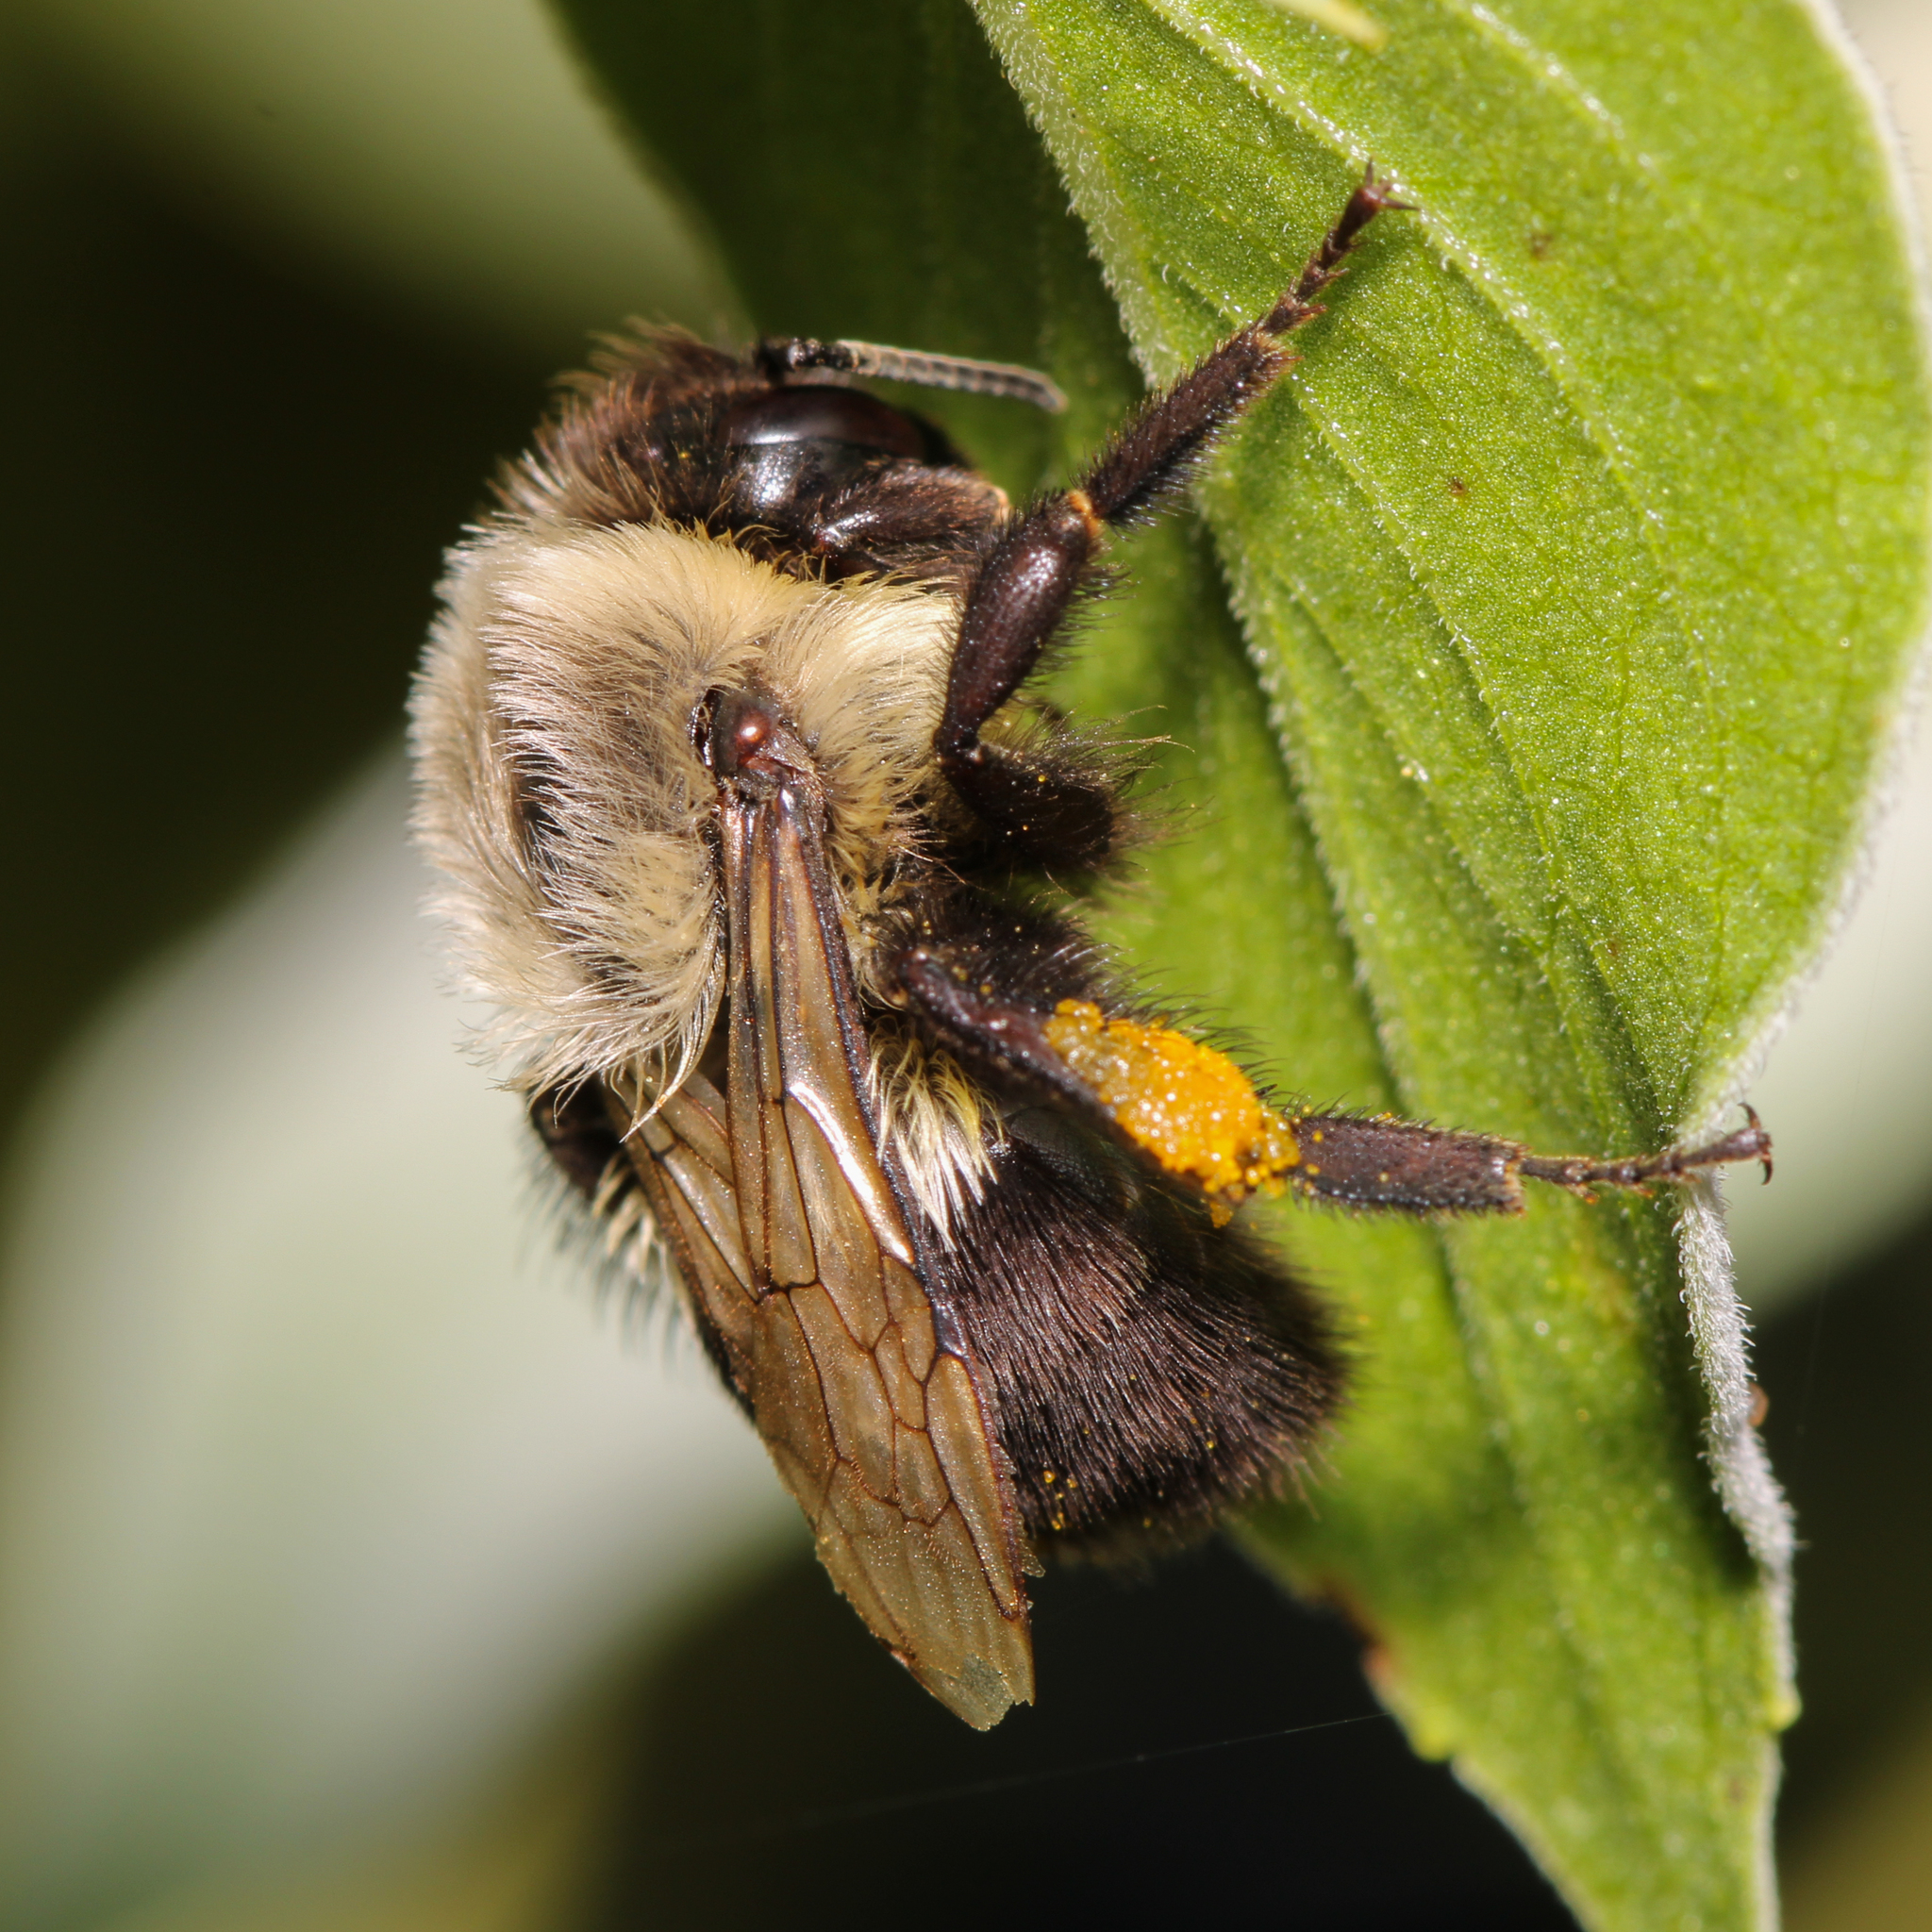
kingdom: Animalia
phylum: Arthropoda
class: Insecta
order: Hymenoptera
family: Apidae
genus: Bombus
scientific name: Bombus impatiens
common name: Common eastern bumble bee
